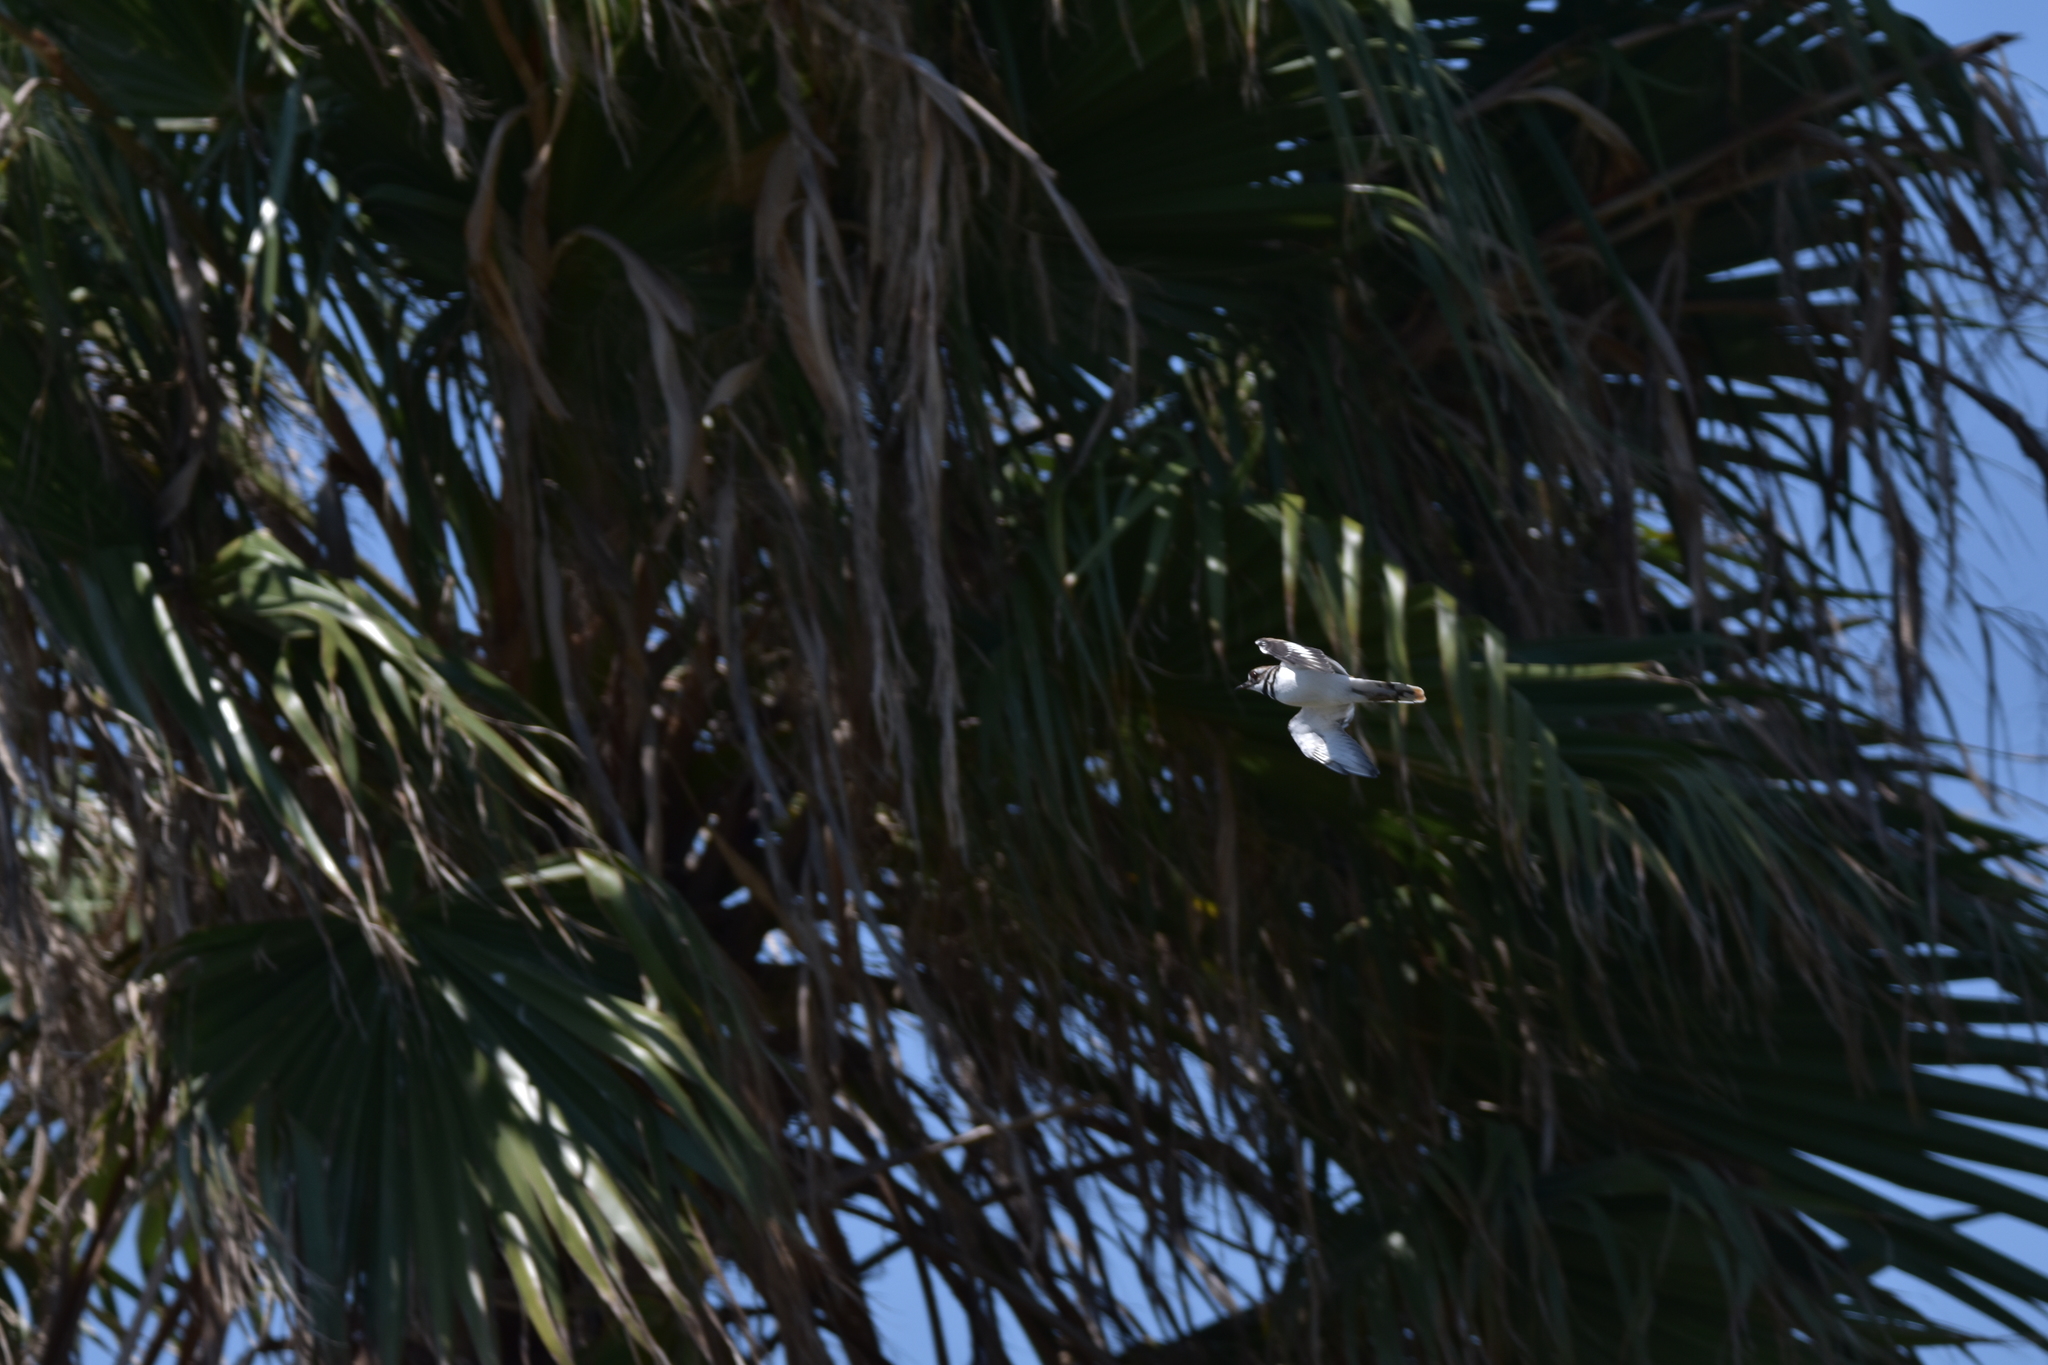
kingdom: Animalia
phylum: Chordata
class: Aves
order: Charadriiformes
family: Charadriidae
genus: Charadrius
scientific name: Charadrius vociferus
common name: Killdeer
